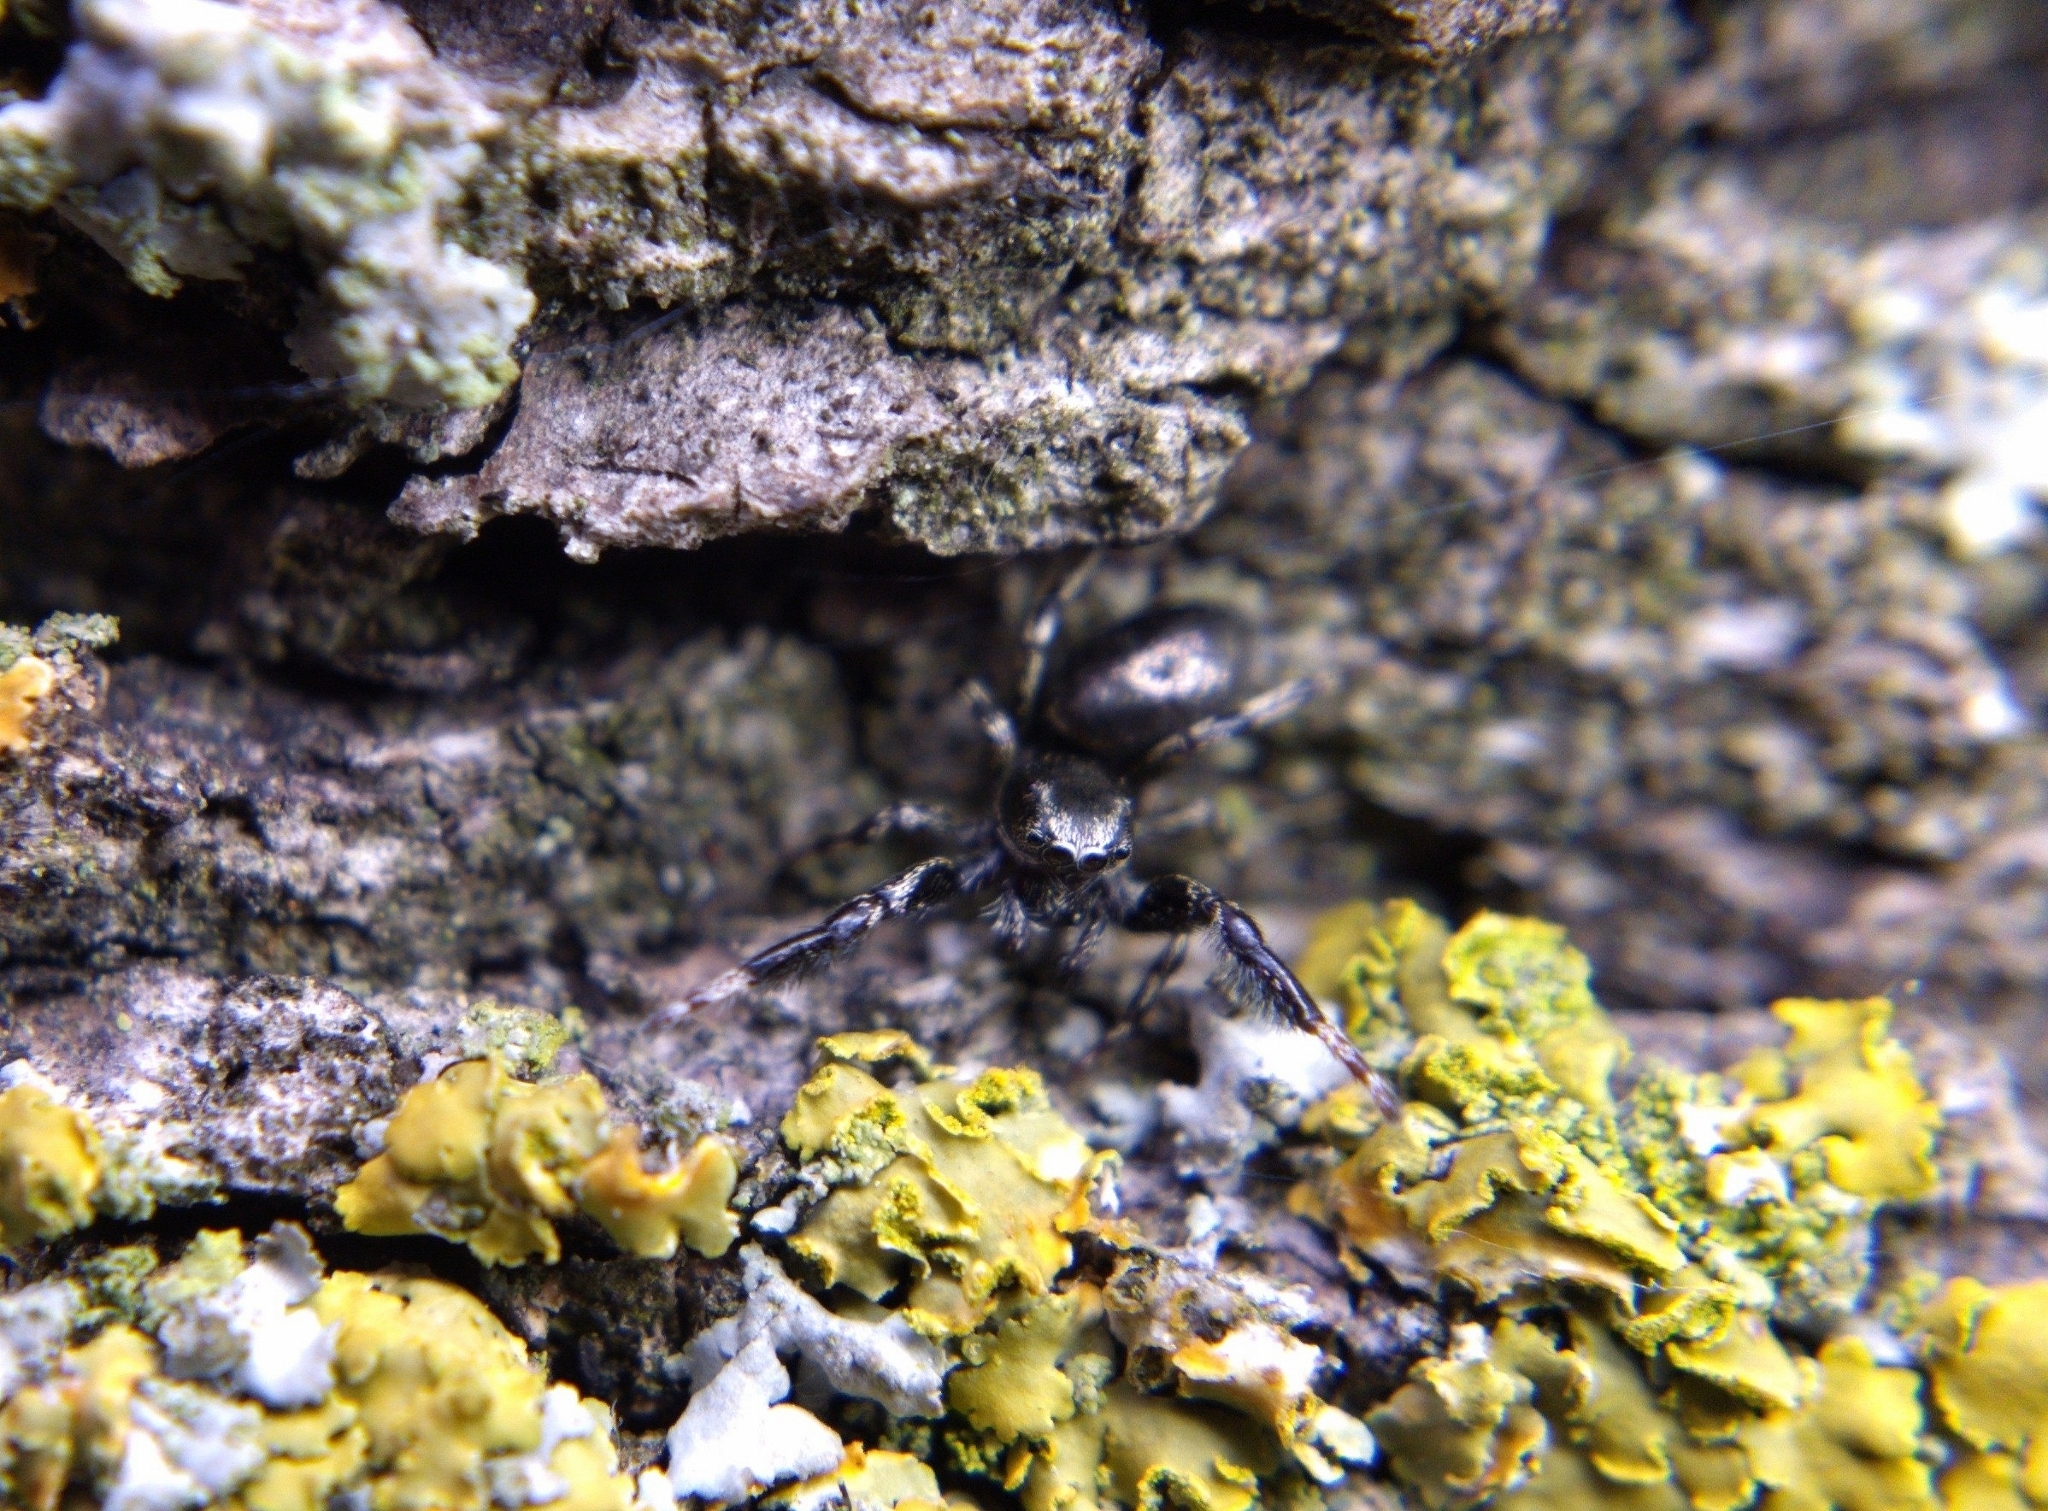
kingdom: Animalia
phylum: Arthropoda
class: Arachnida
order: Araneae
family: Salticidae
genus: Tutelina
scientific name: Tutelina harti
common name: Hart's jumping spider
